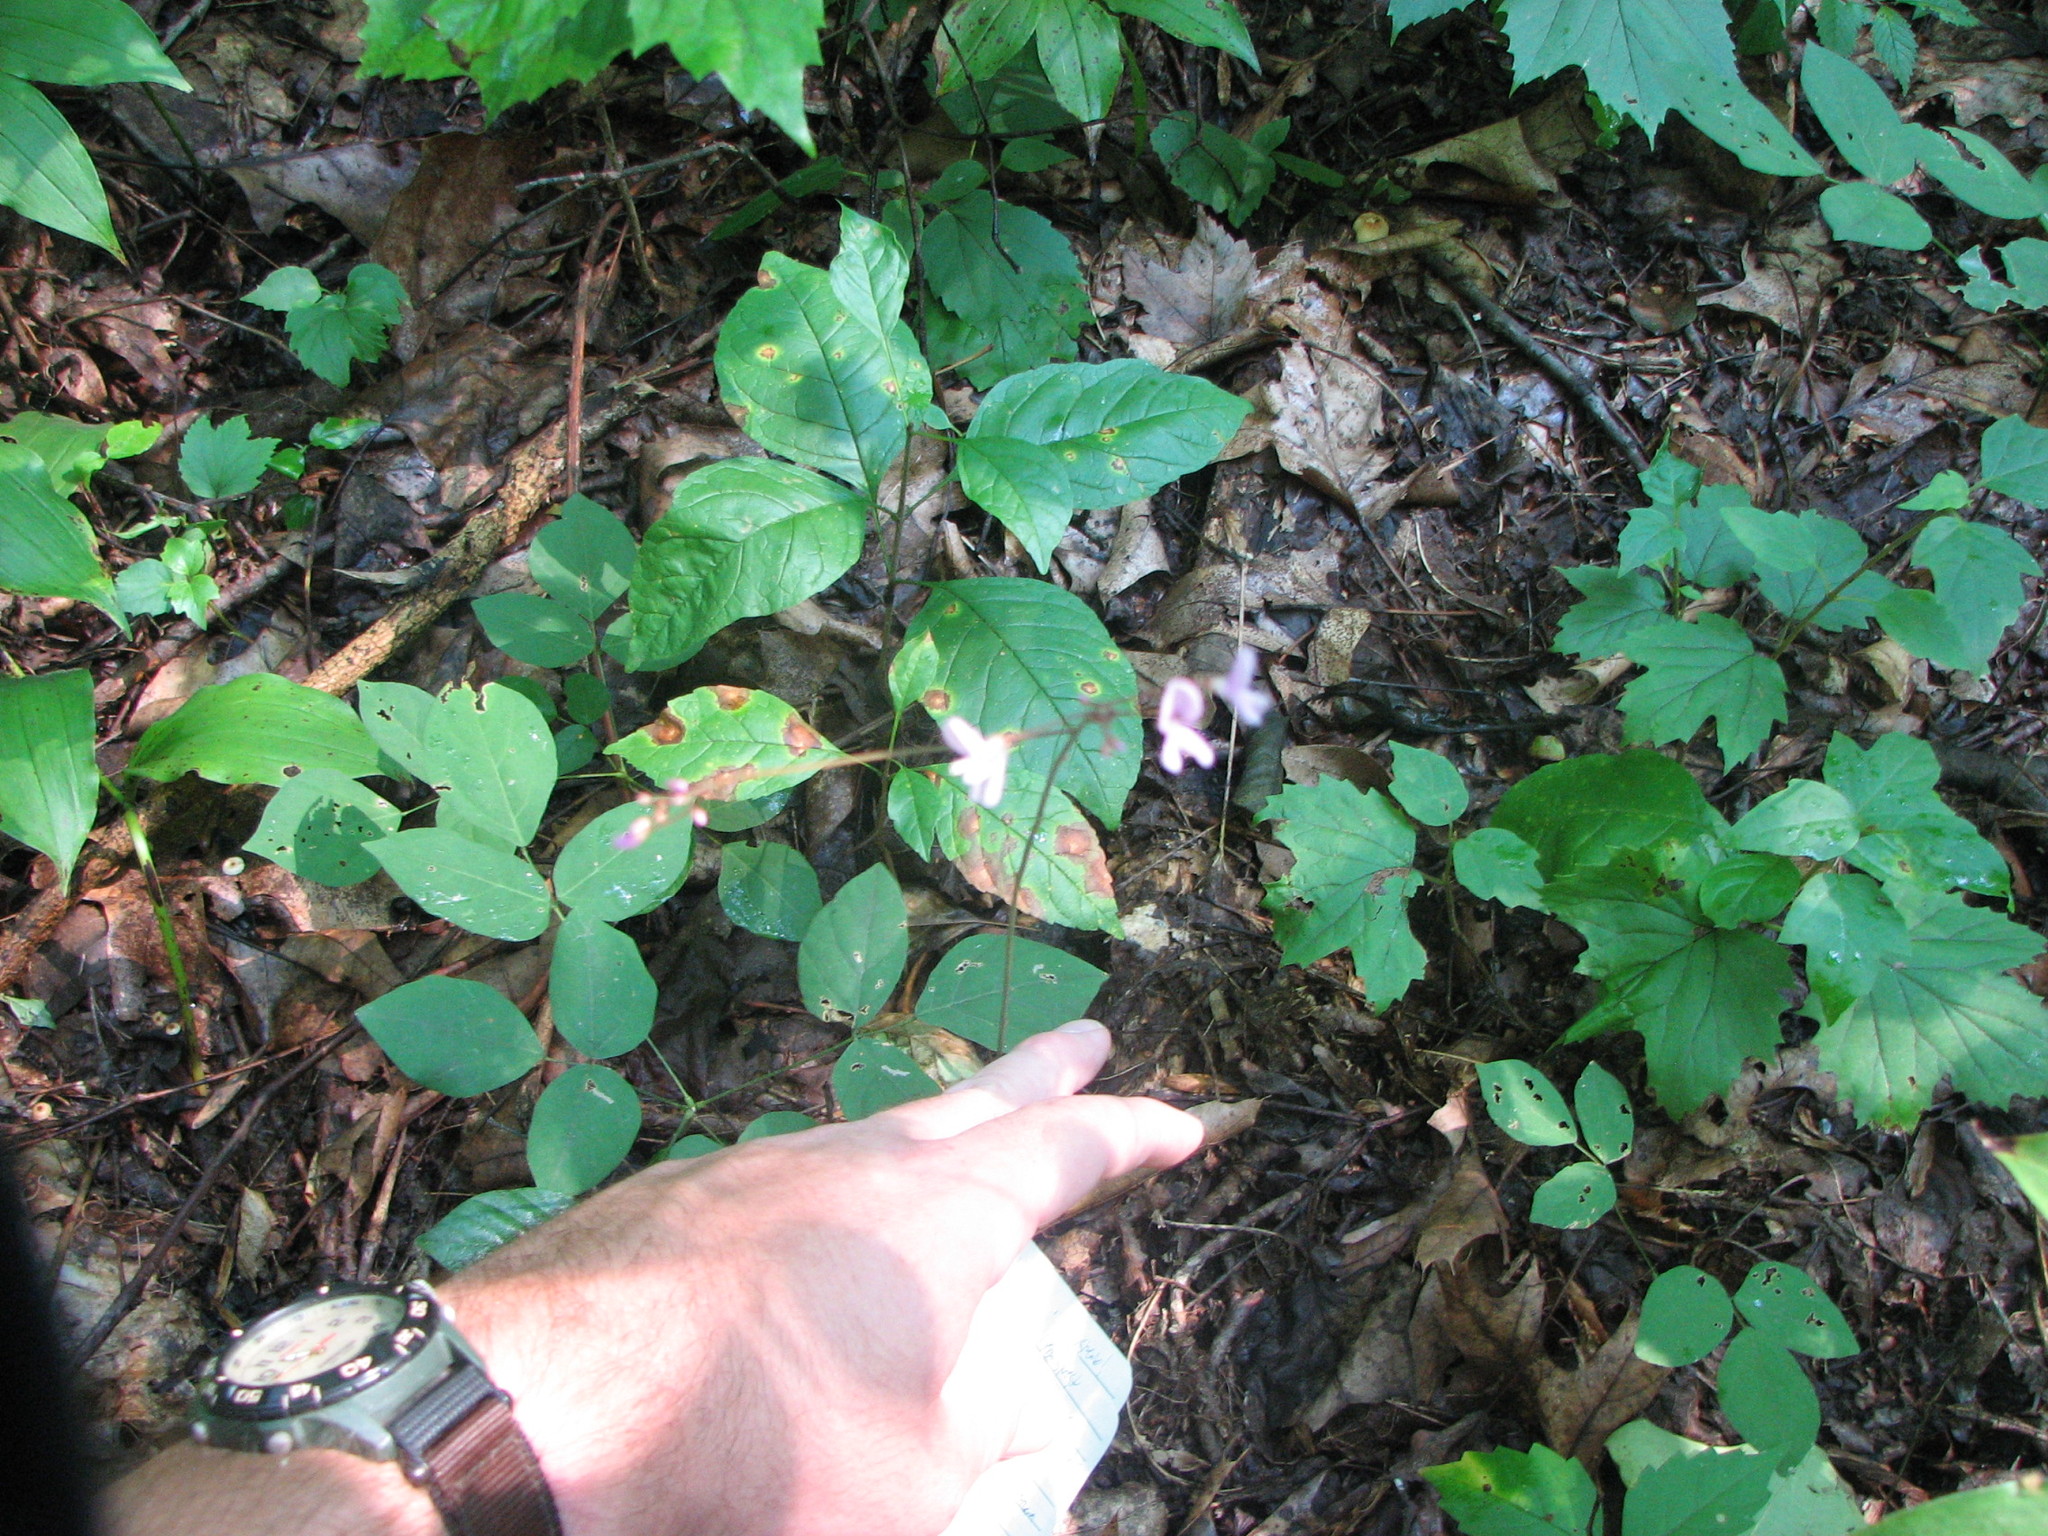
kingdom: Plantae
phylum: Tracheophyta
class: Magnoliopsida
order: Fabales
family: Fabaceae
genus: Hylodesmum
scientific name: Hylodesmum nudiflorum
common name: Bare-stemmed tick-trefoil
